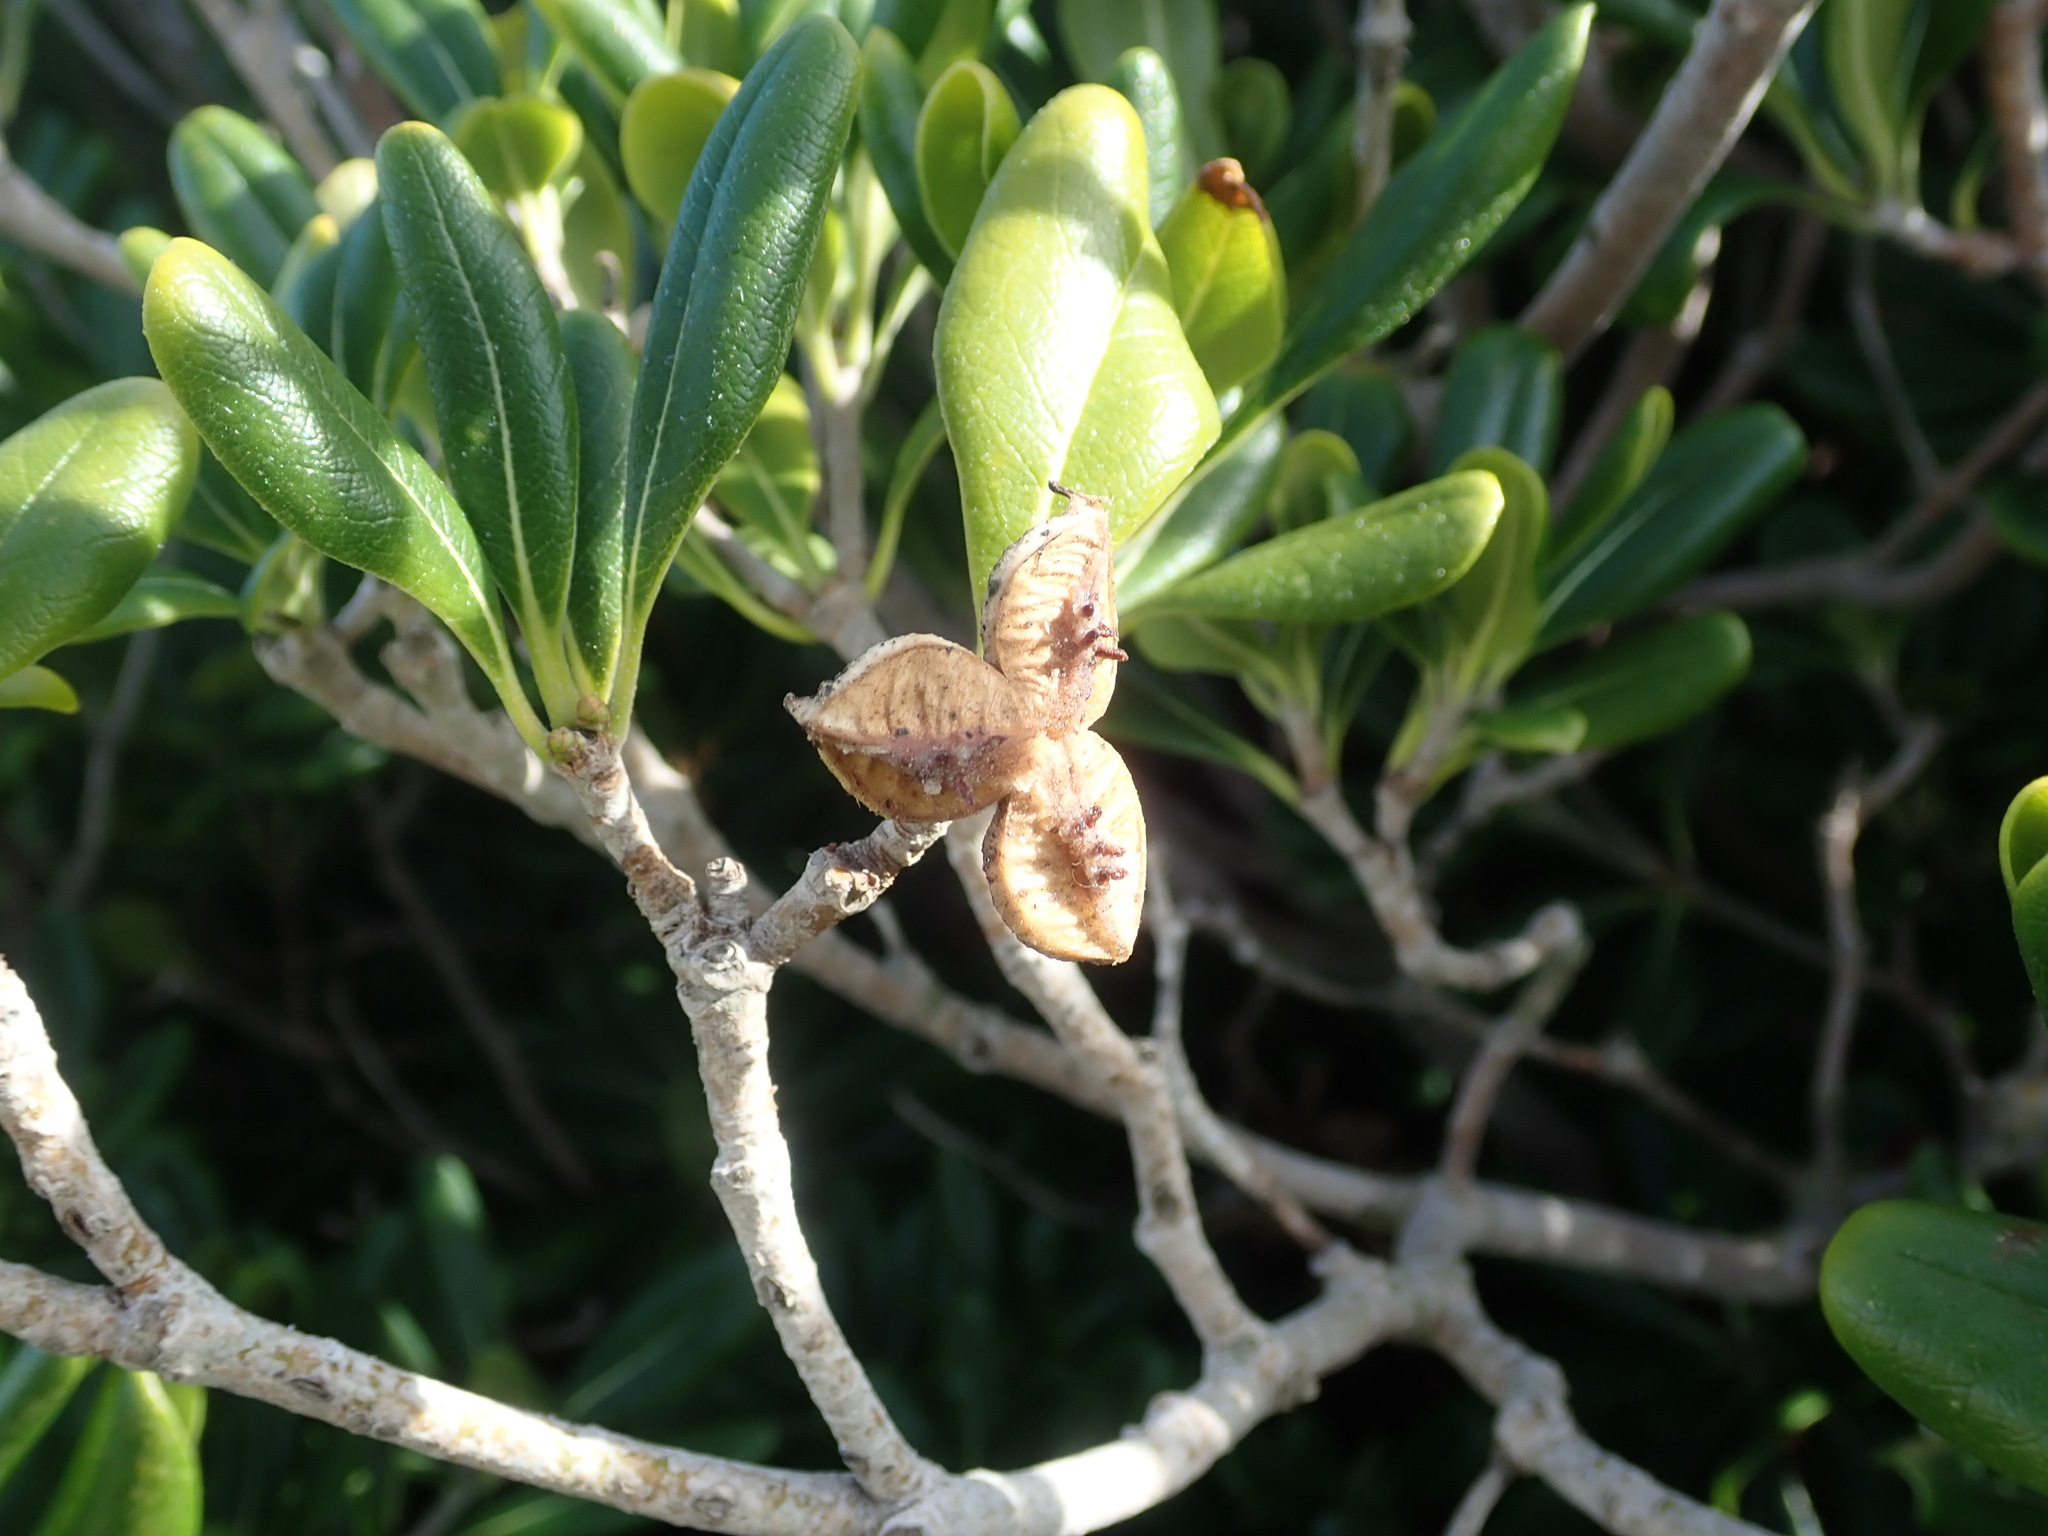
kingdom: Plantae
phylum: Tracheophyta
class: Magnoliopsida
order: Apiales
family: Pittosporaceae
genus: Pittosporum
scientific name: Pittosporum tobira
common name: Japanese cheesewood
